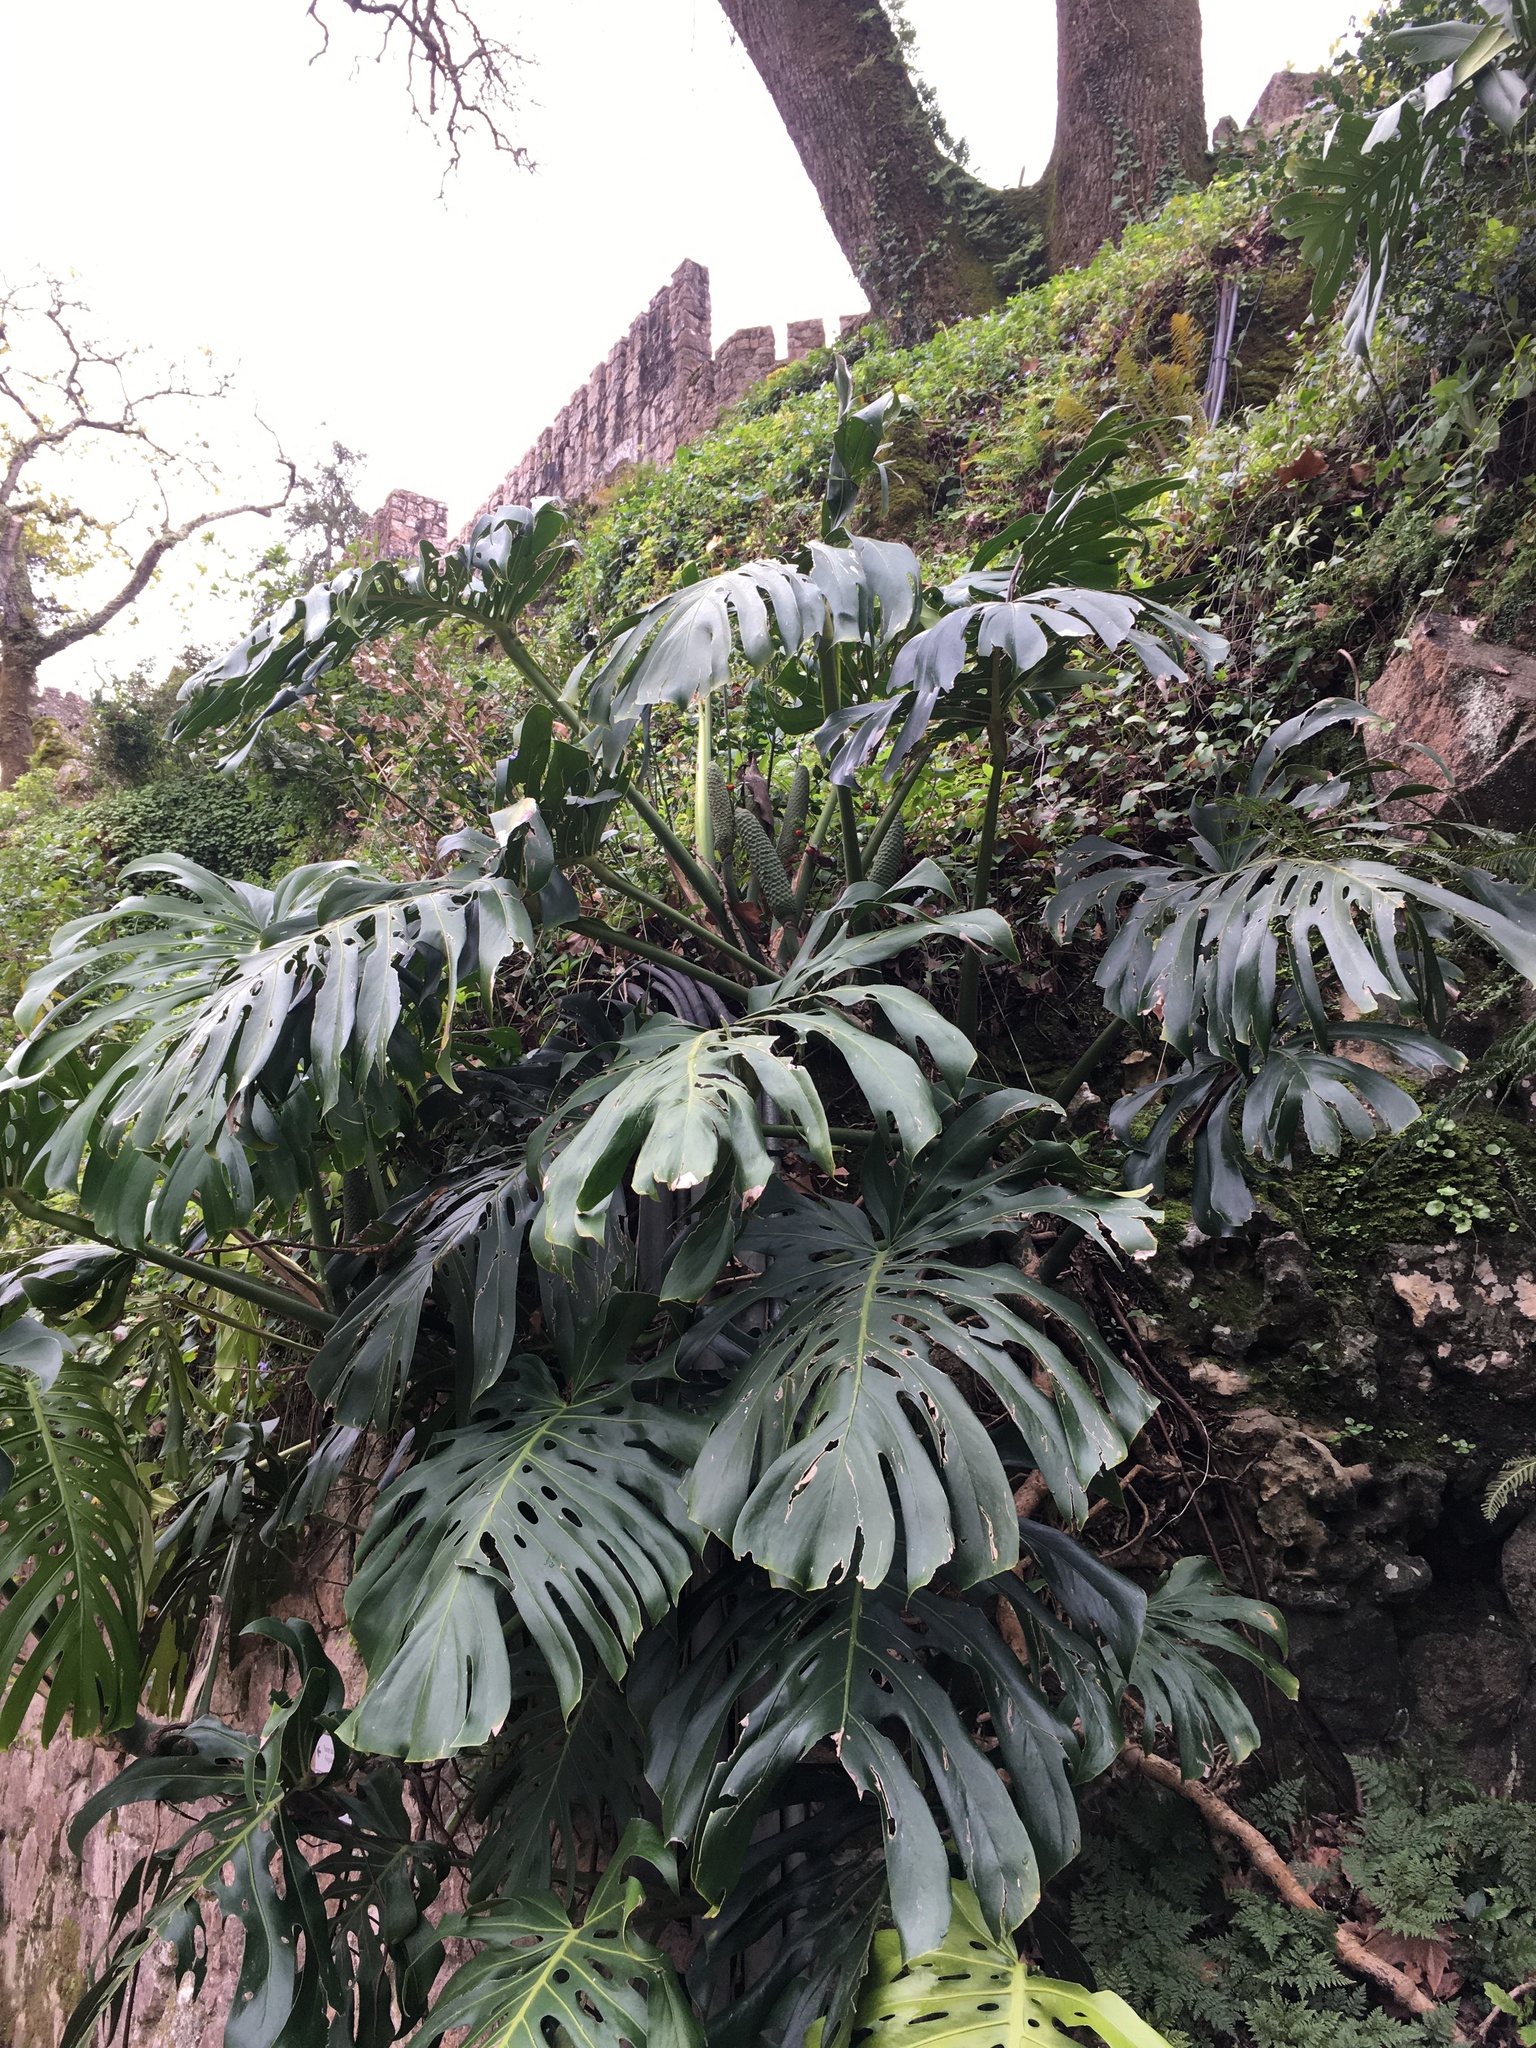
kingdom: Plantae
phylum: Tracheophyta
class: Liliopsida
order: Alismatales
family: Araceae
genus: Monstera
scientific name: Monstera deliciosa
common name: Cut-leaf-philodendron
